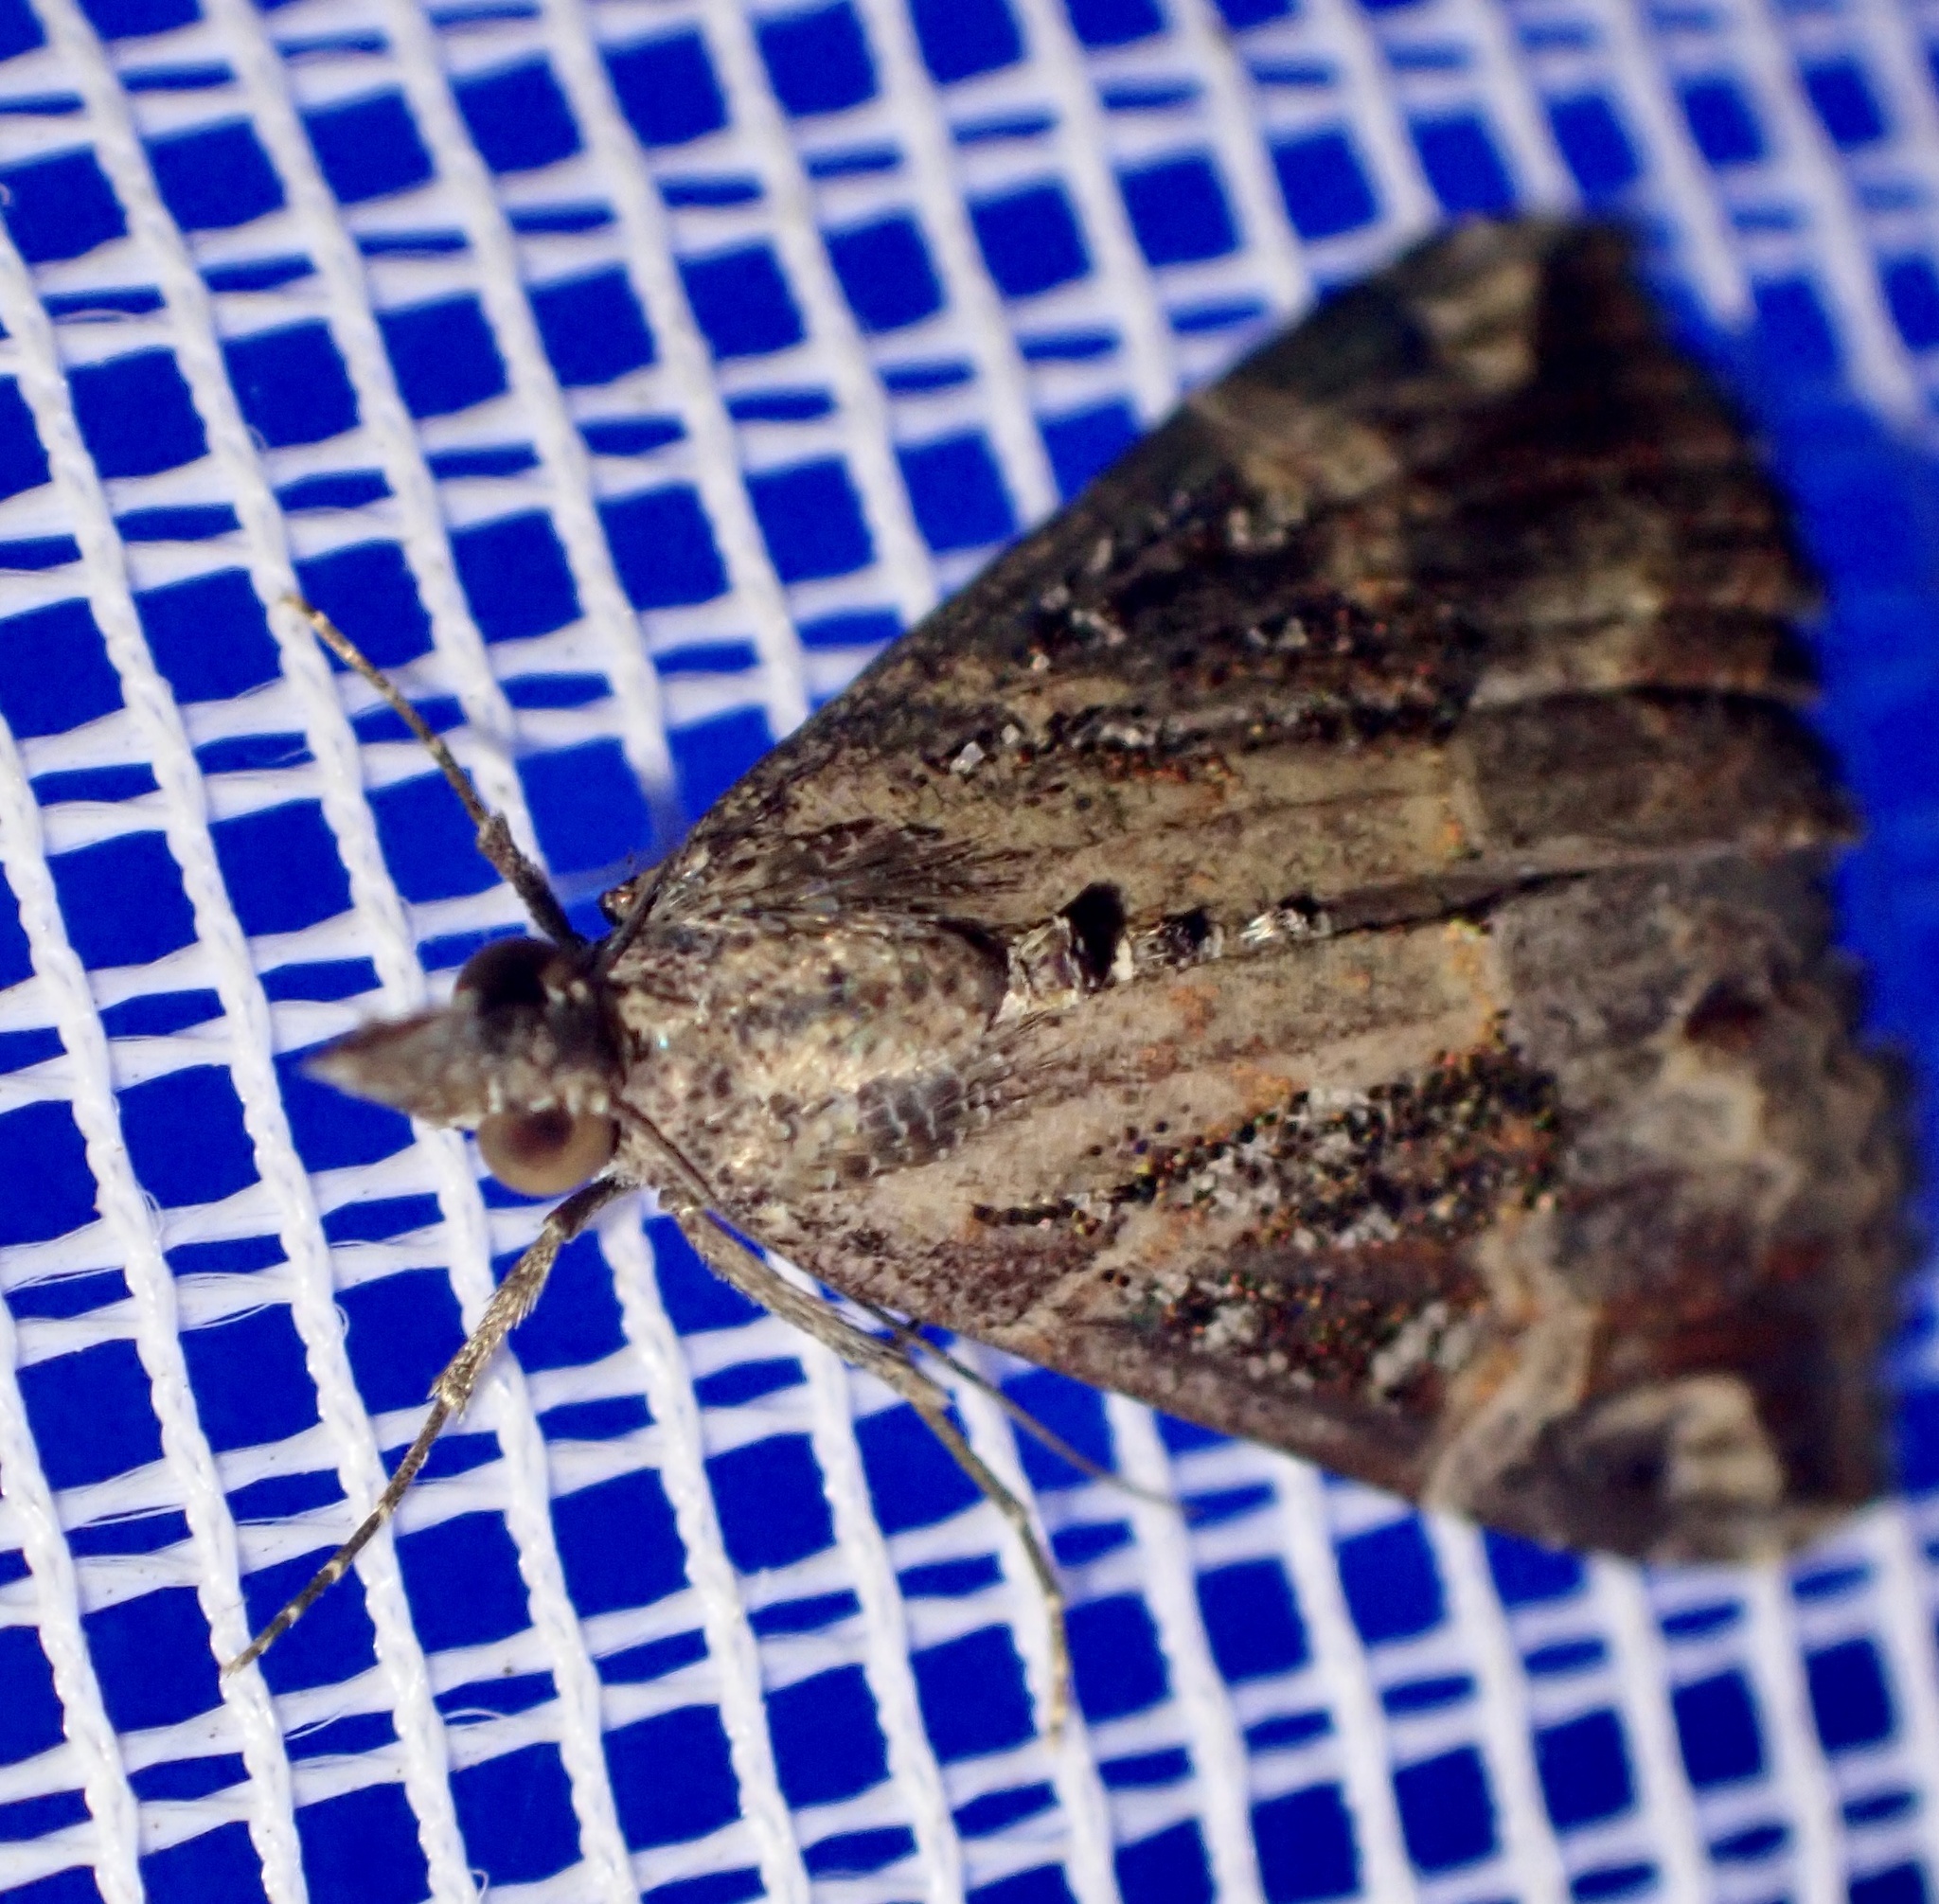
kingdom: Animalia
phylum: Arthropoda
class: Insecta
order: Lepidoptera
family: Erebidae
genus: Hypena
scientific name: Hypena commixtalis
